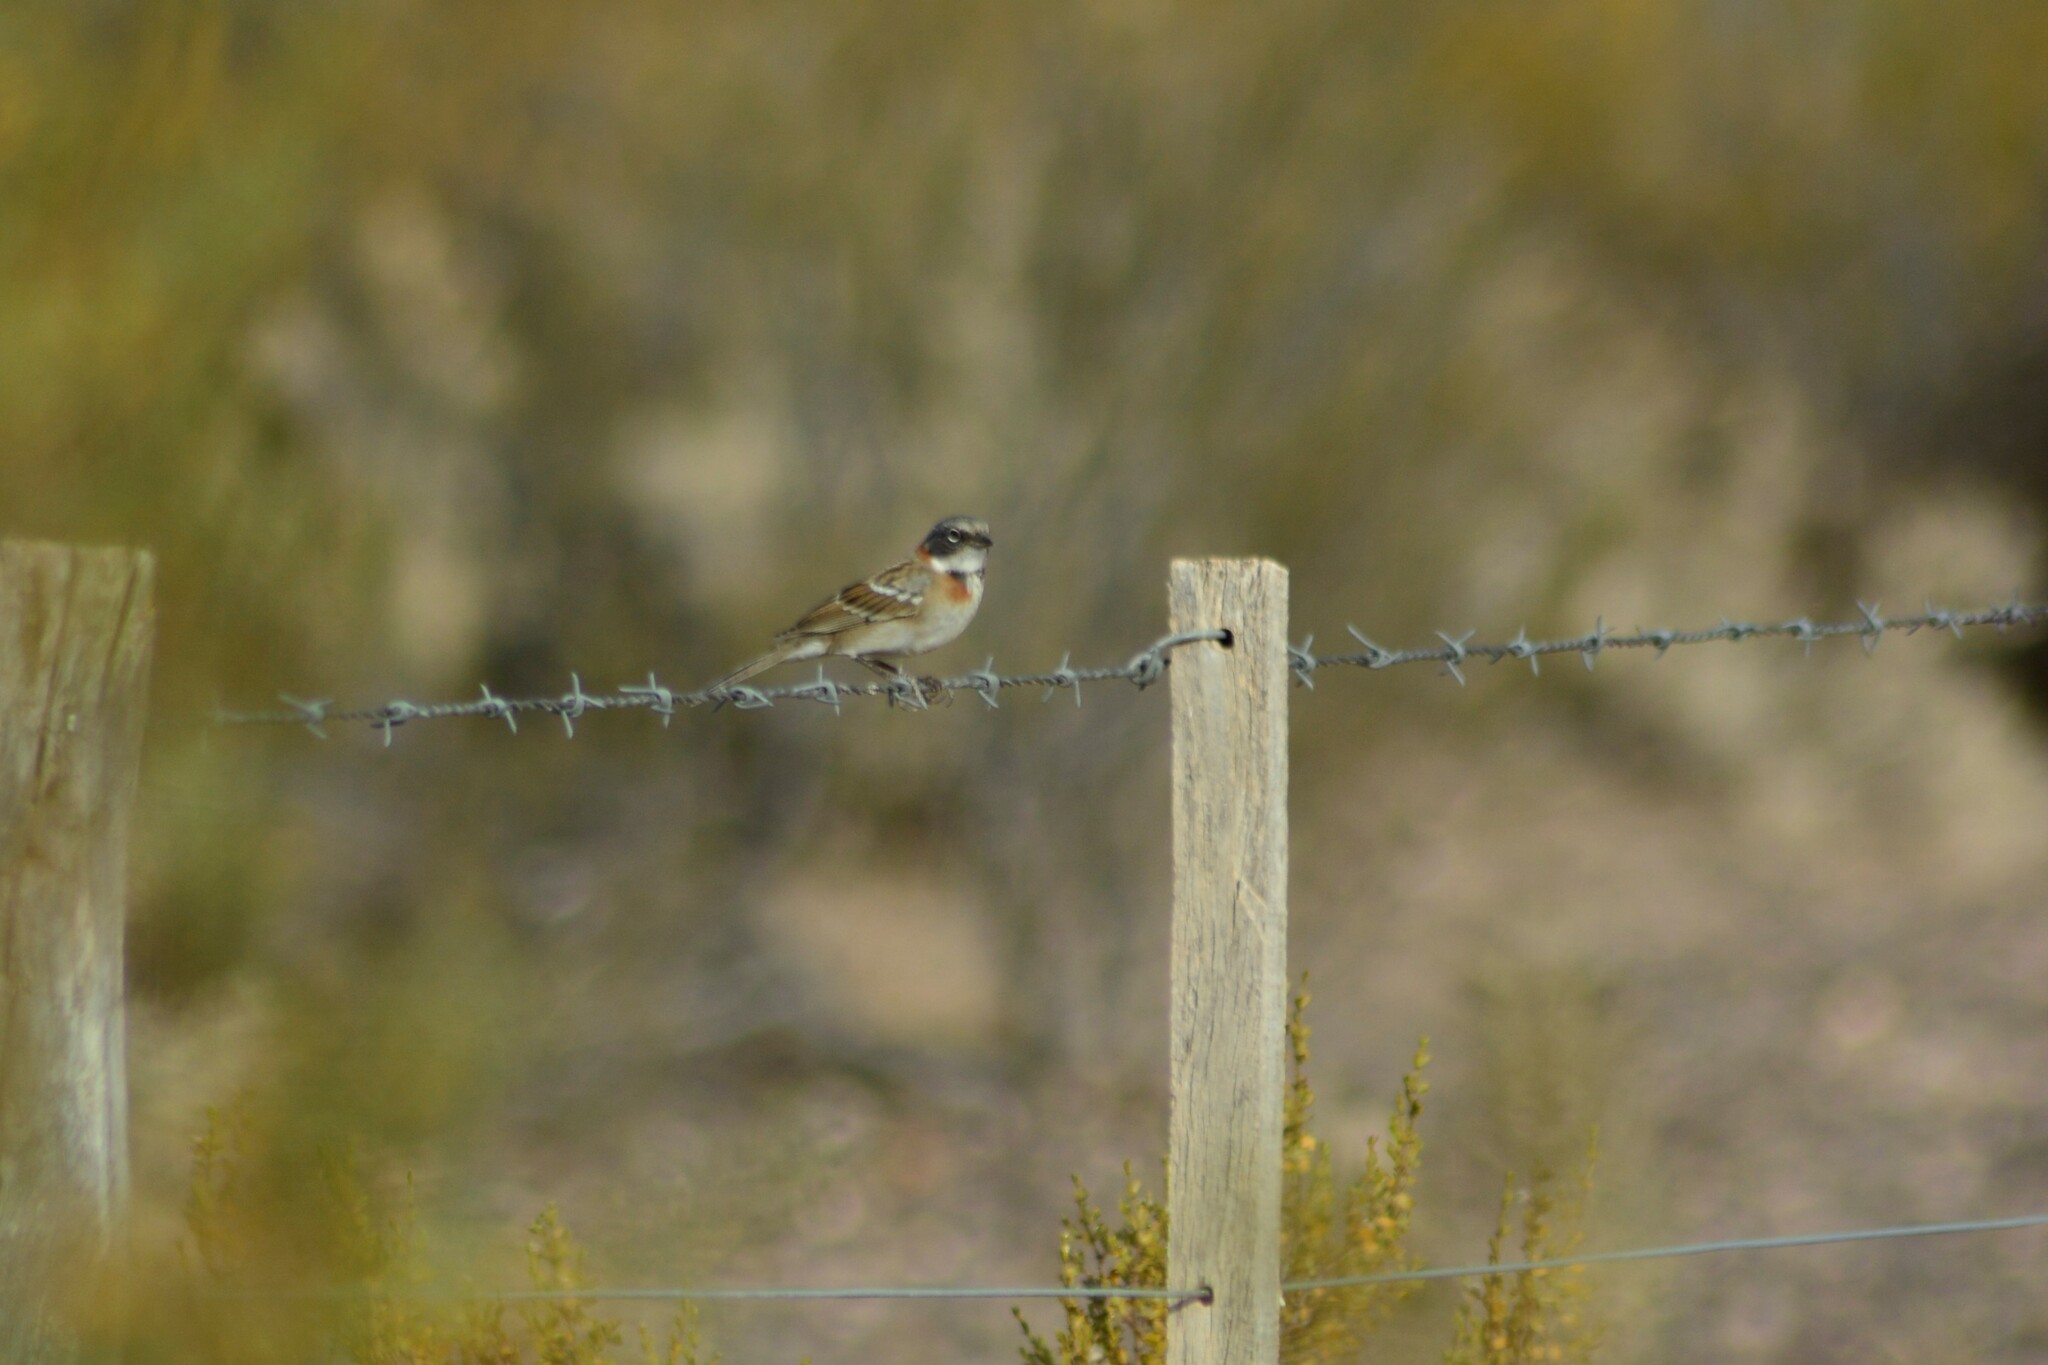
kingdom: Animalia
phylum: Chordata
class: Aves
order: Passeriformes
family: Passerellidae
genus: Zonotrichia
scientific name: Zonotrichia capensis
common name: Rufous-collared sparrow
